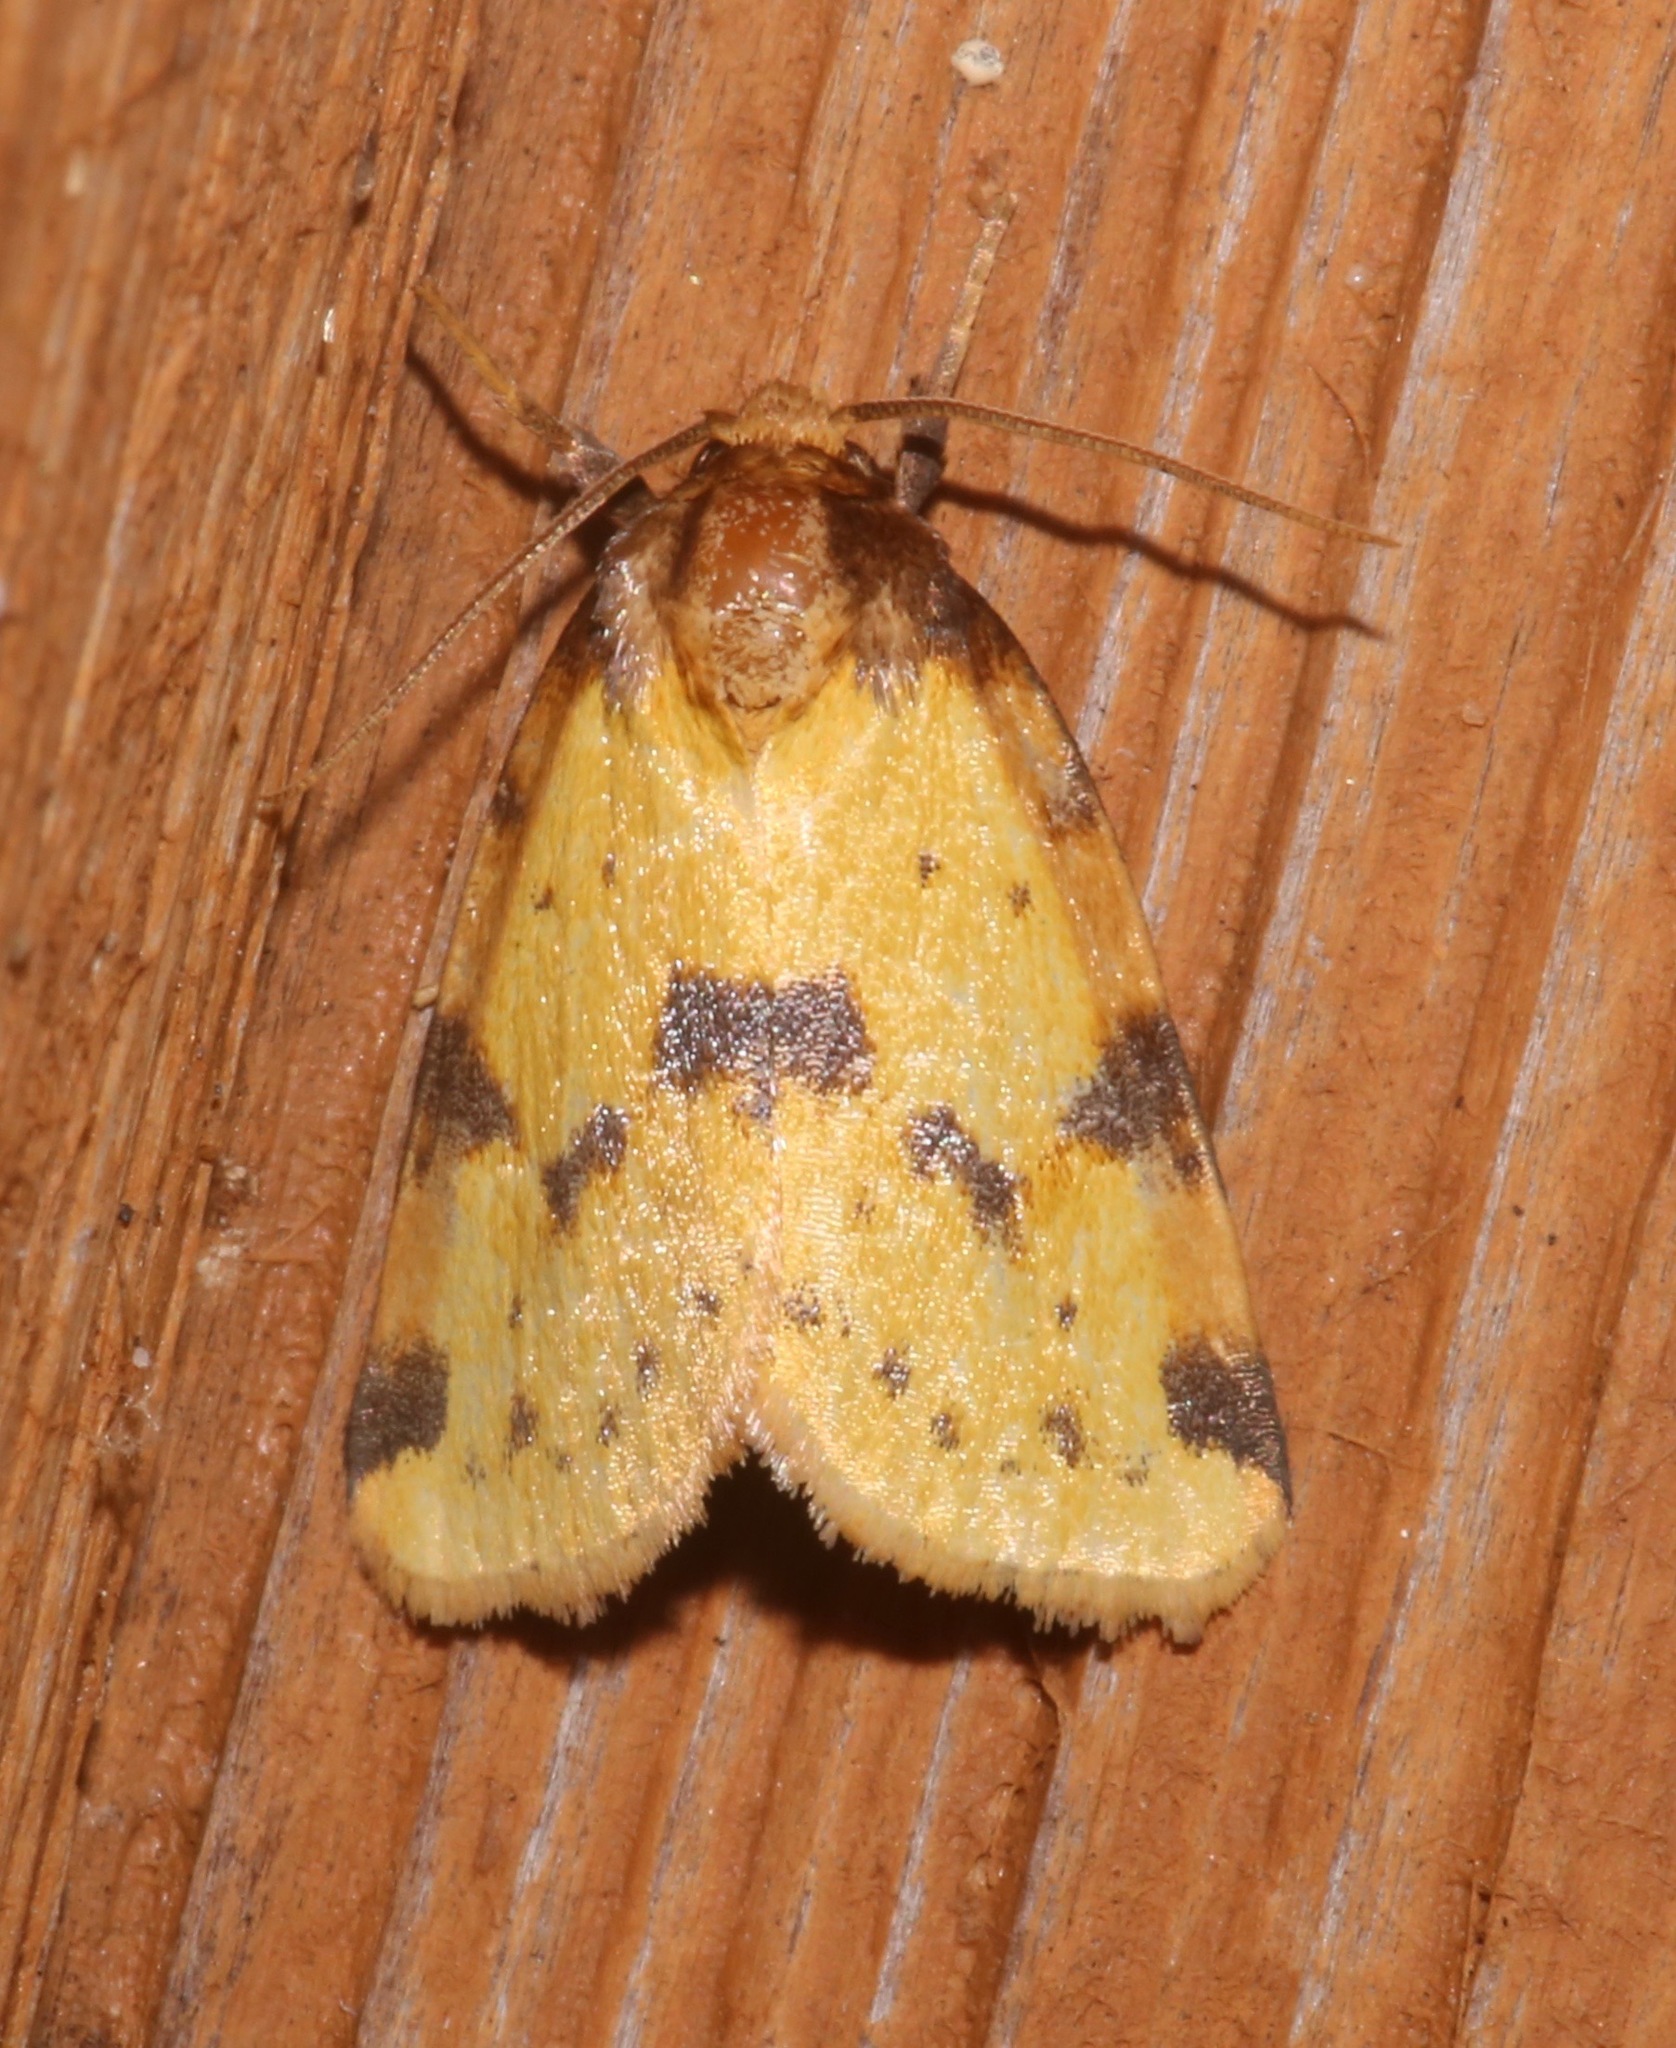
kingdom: Animalia
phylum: Arthropoda
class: Insecta
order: Lepidoptera
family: Noctuidae
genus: Azenia
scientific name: Azenia obtusa
